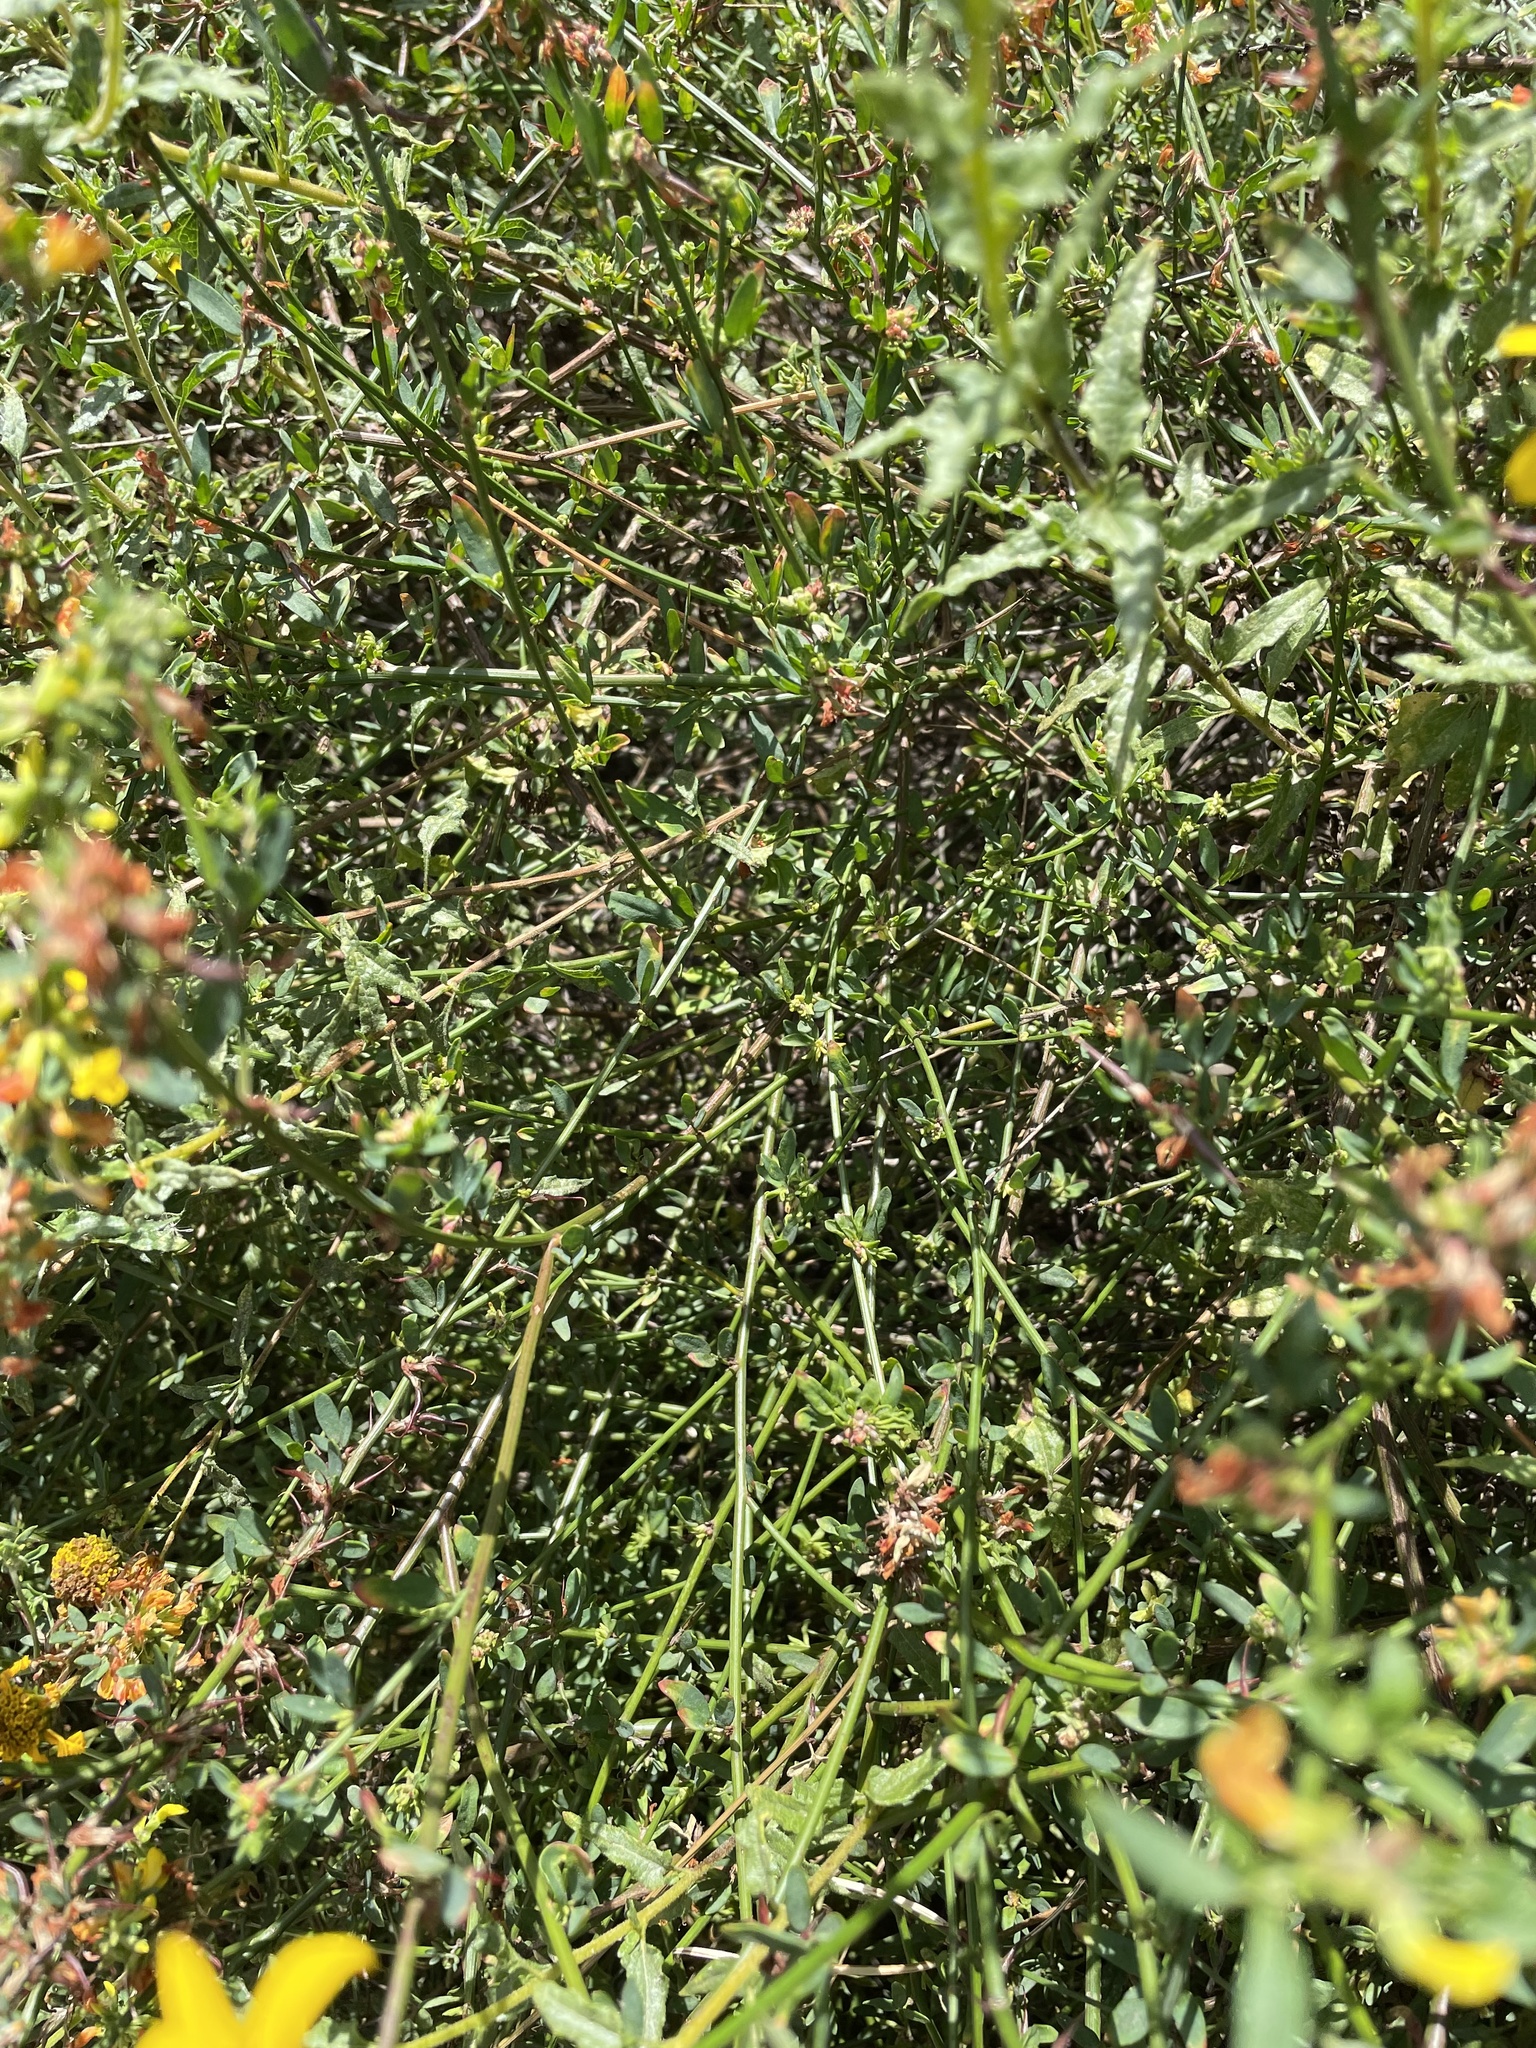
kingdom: Plantae
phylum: Tracheophyta
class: Magnoliopsida
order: Fabales
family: Fabaceae
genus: Acmispon
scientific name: Acmispon glaber
